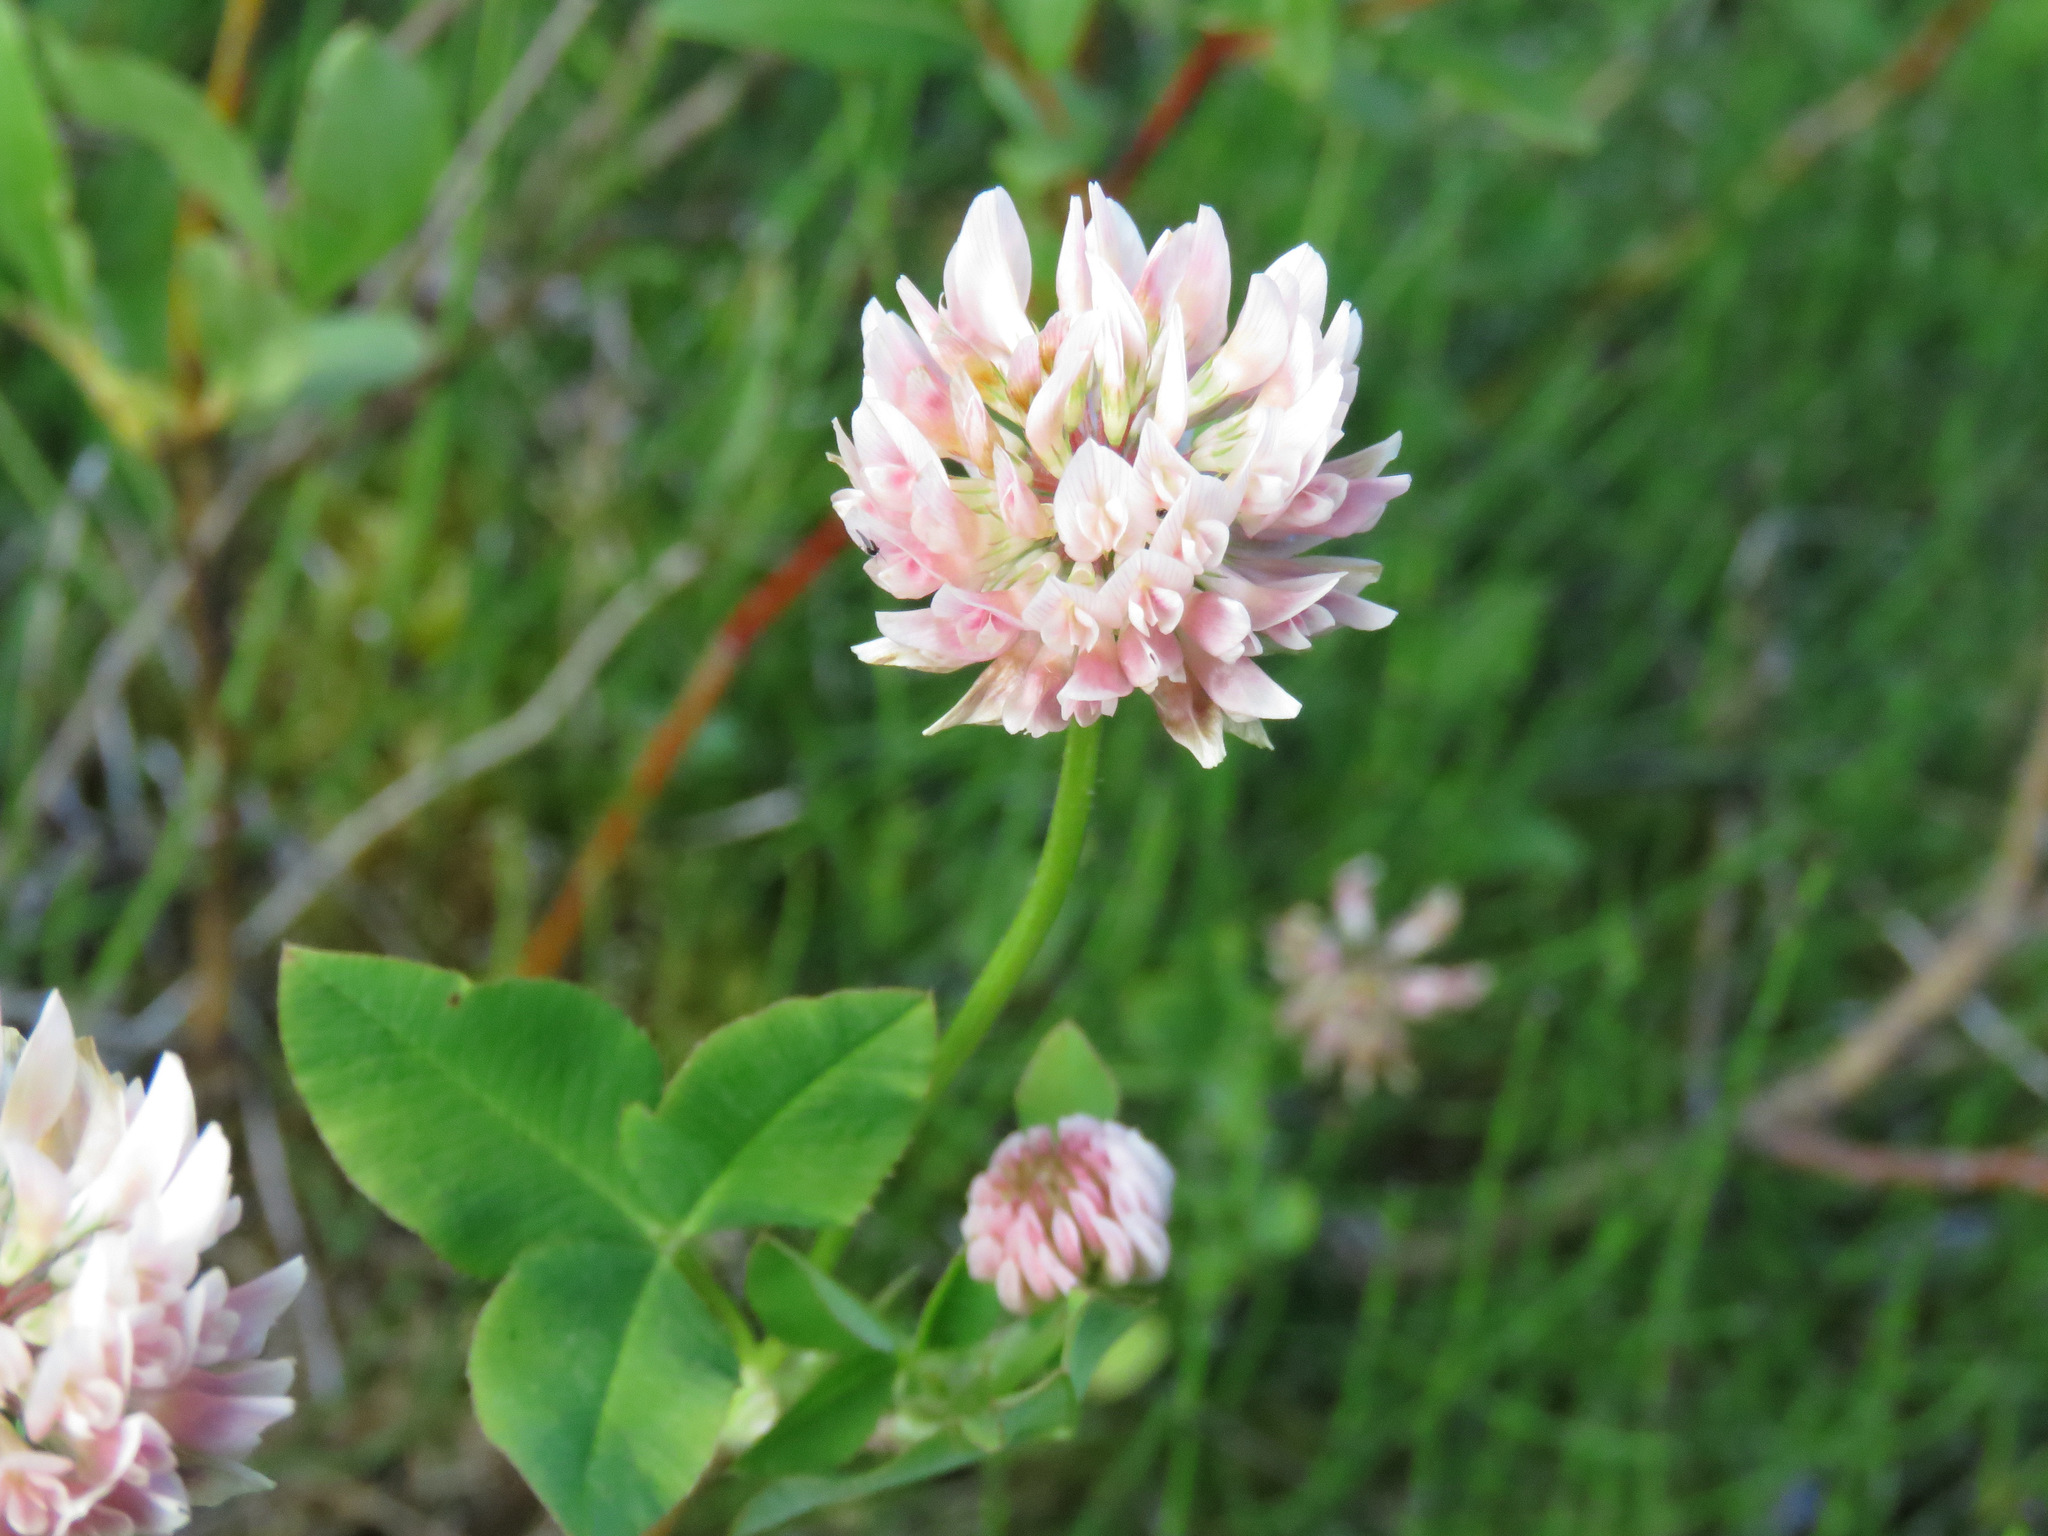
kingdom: Plantae
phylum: Tracheophyta
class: Magnoliopsida
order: Fabales
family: Fabaceae
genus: Trifolium
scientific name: Trifolium hybridum
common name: Alsike clover
